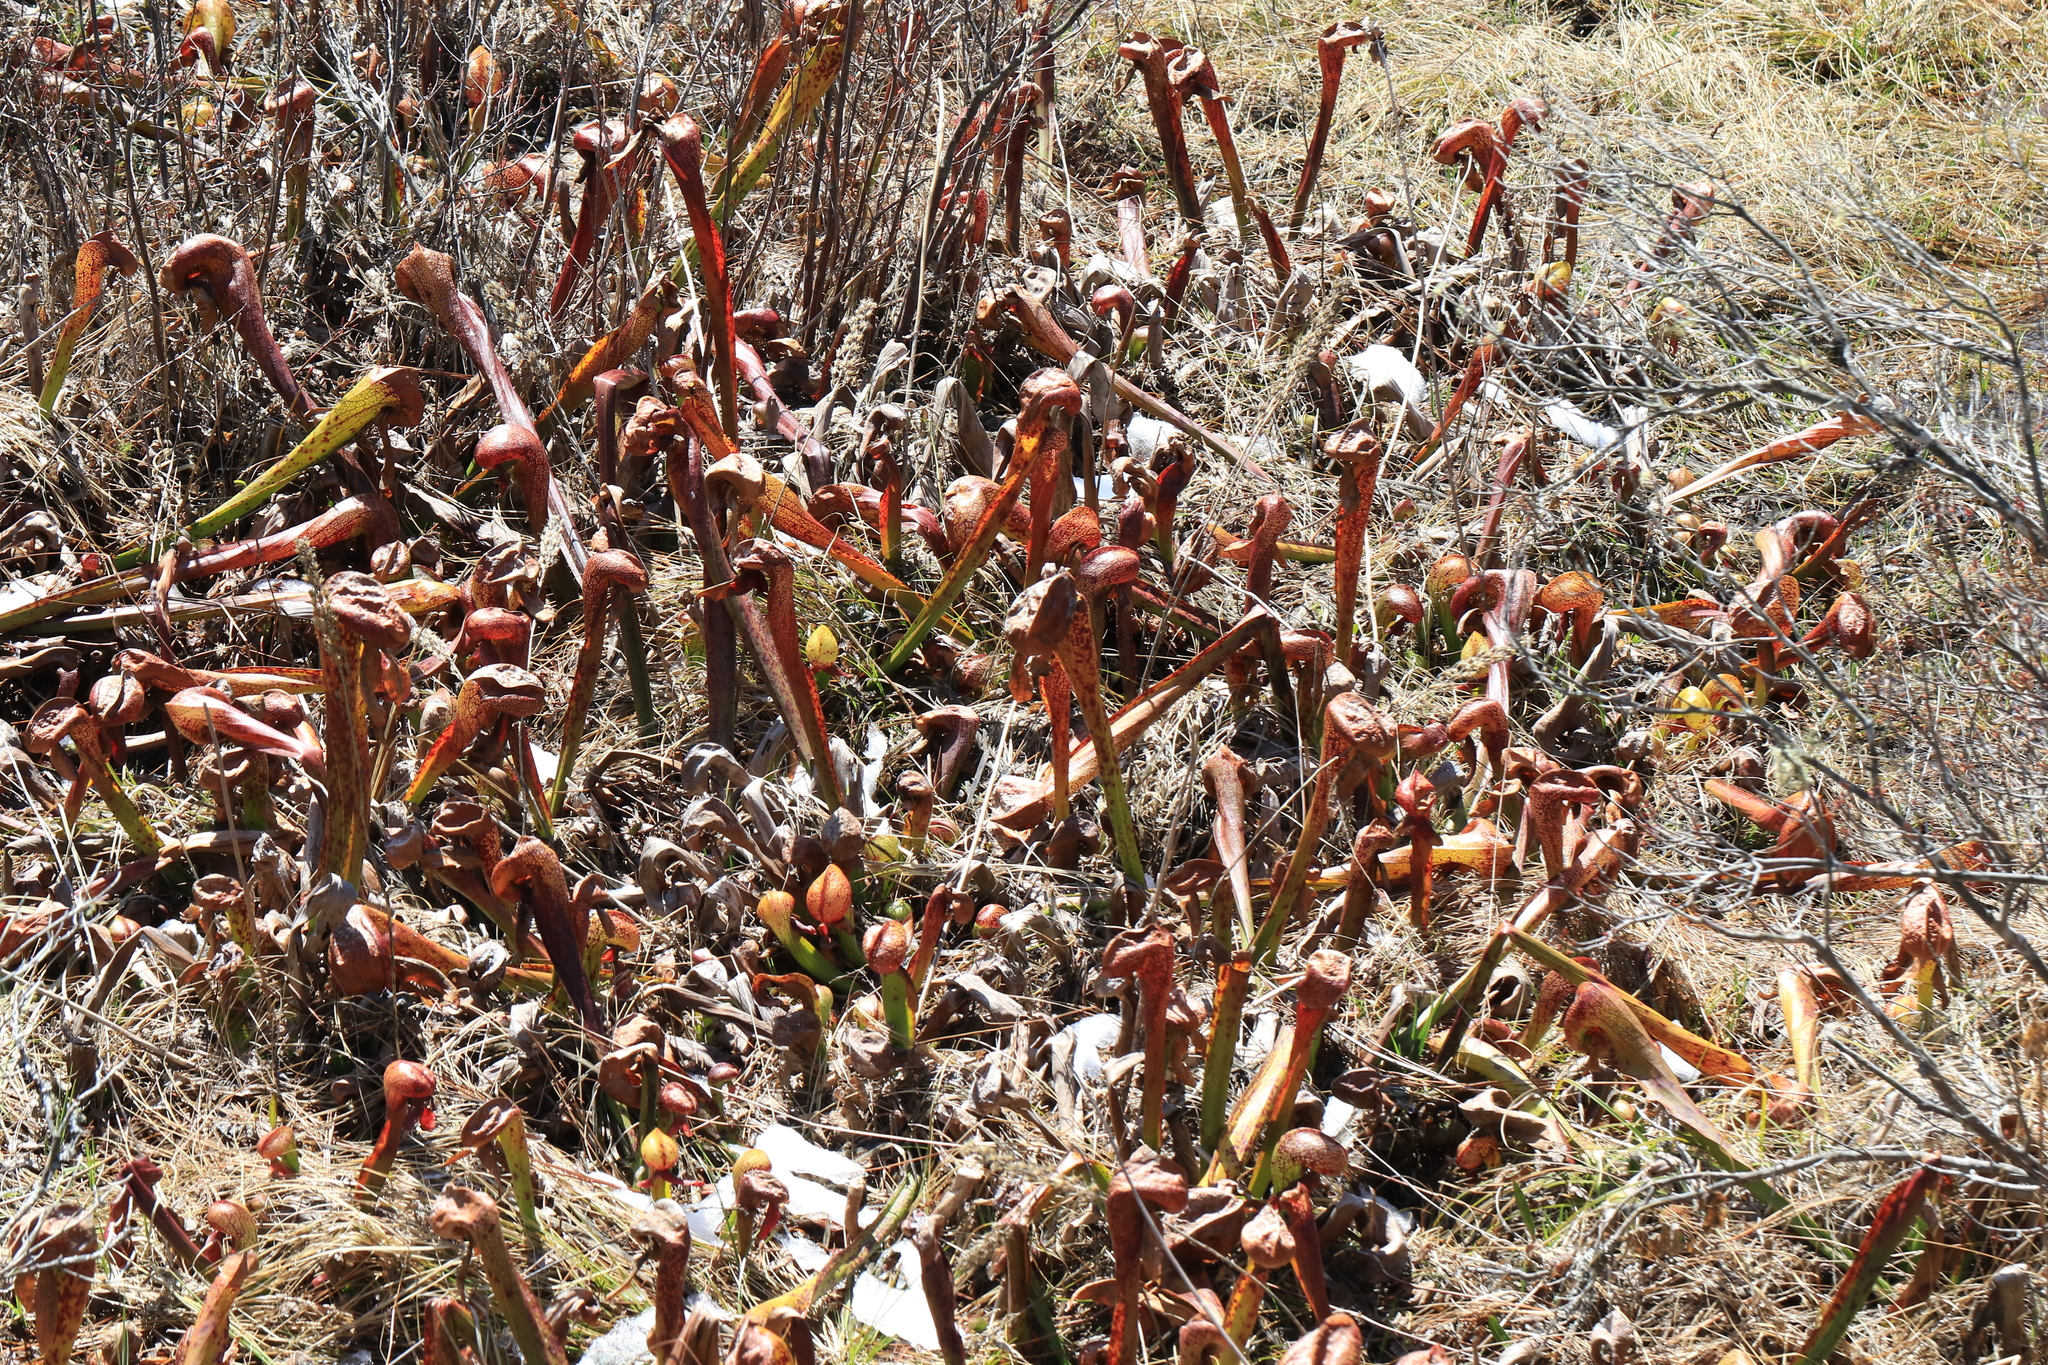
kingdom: Plantae
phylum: Tracheophyta
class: Magnoliopsida
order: Ericales
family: Sarraceniaceae
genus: Darlingtonia
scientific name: Darlingtonia californica
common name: California pitcher plant
